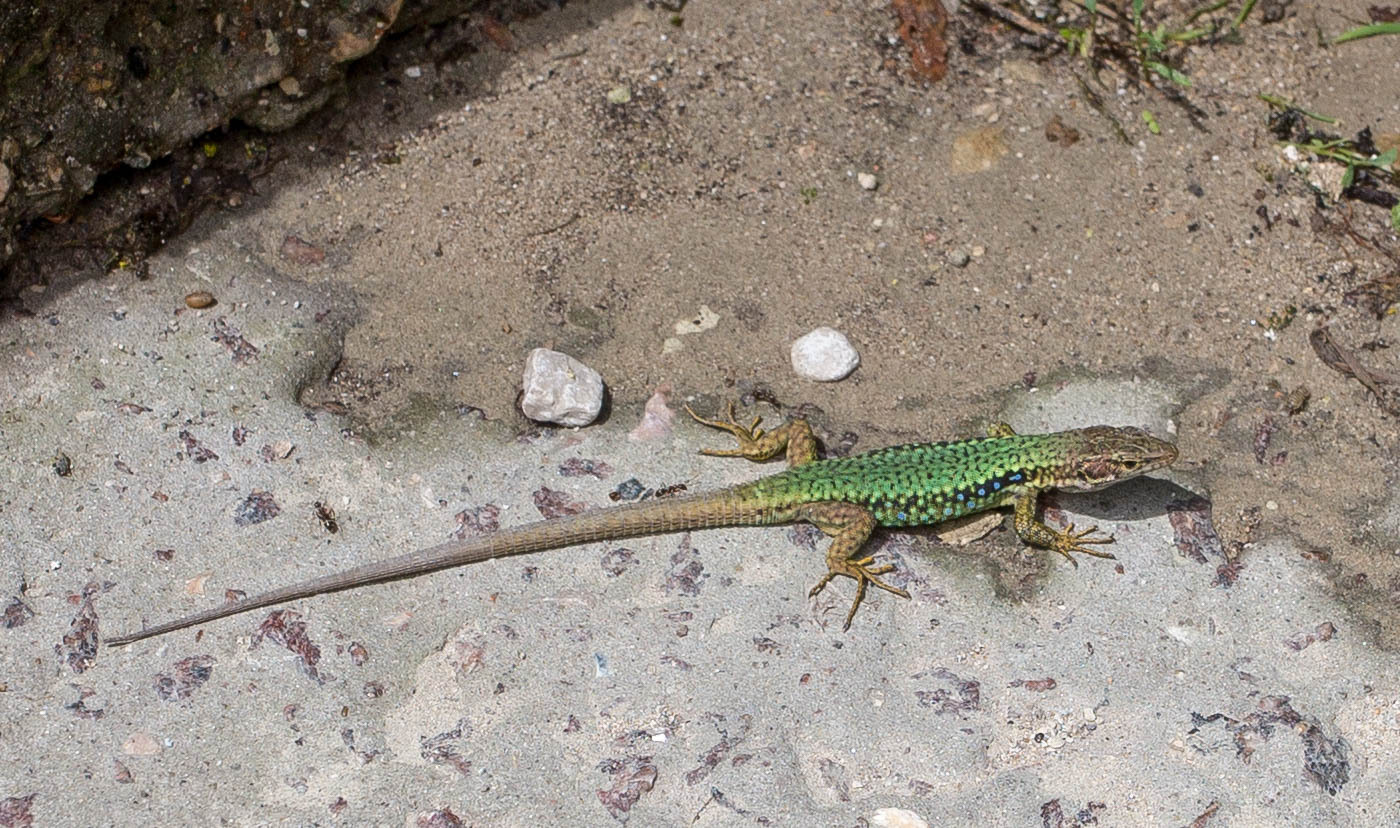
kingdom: Animalia
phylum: Chordata
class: Squamata
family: Lacertidae
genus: Darevskia
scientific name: Darevskia lindholmi
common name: Crimean rock lizard
